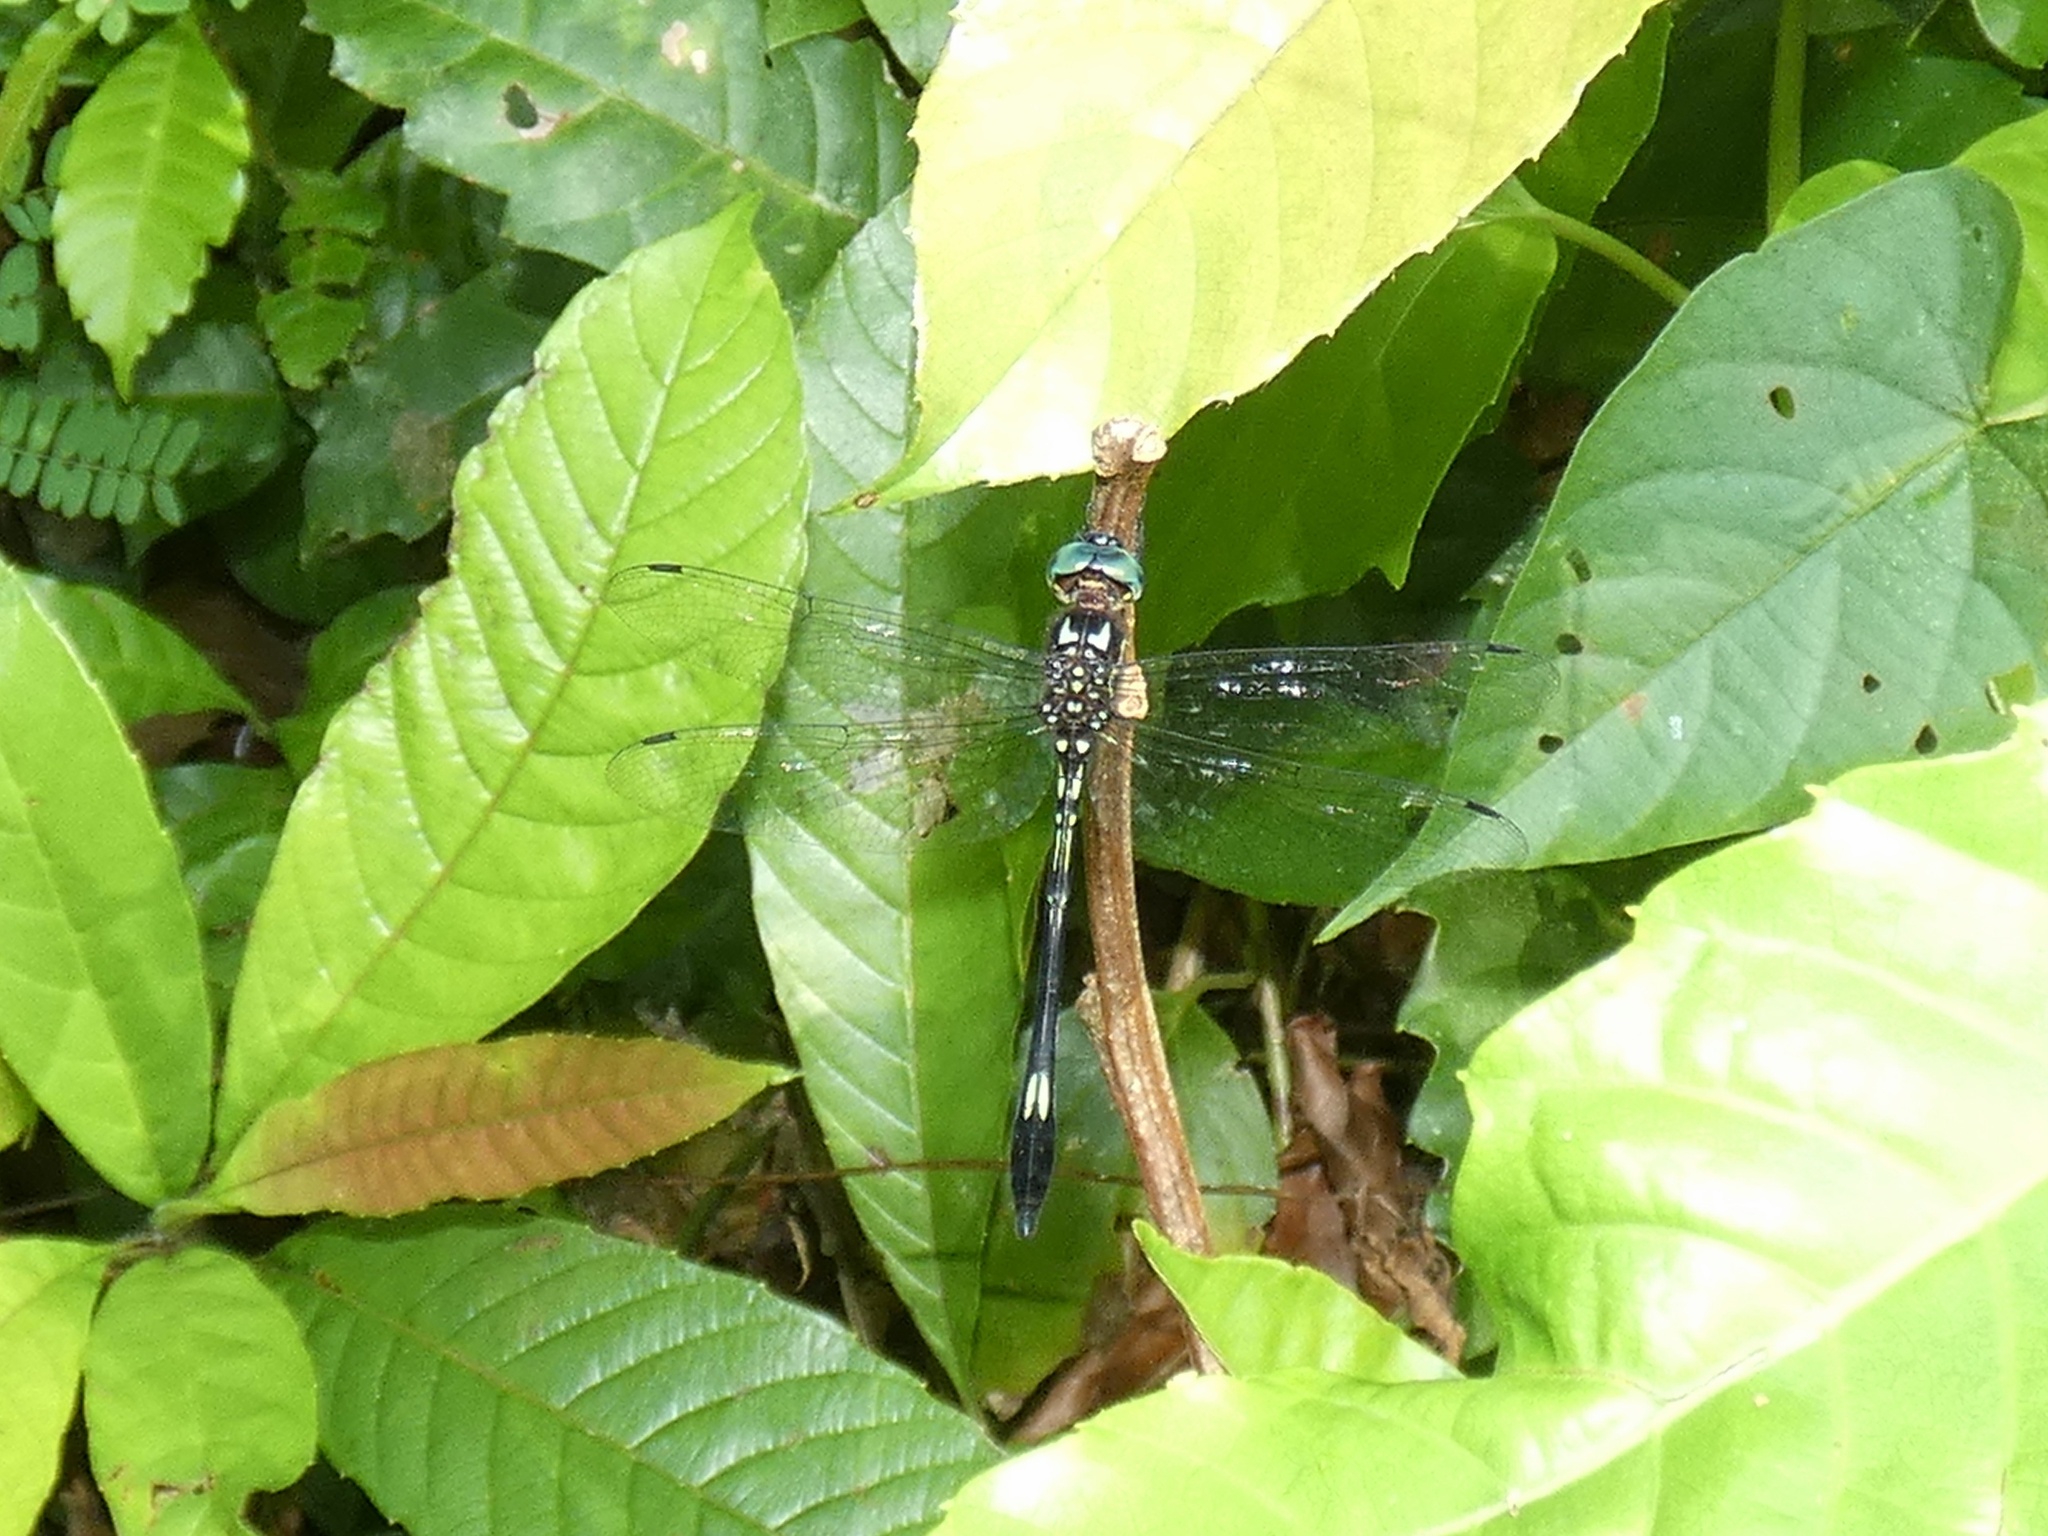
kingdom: Animalia
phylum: Arthropoda
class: Insecta
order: Odonata
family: Libellulidae
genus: Brechmorhoga
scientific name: Brechmorhoga praecox
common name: Slender clubskimmer
